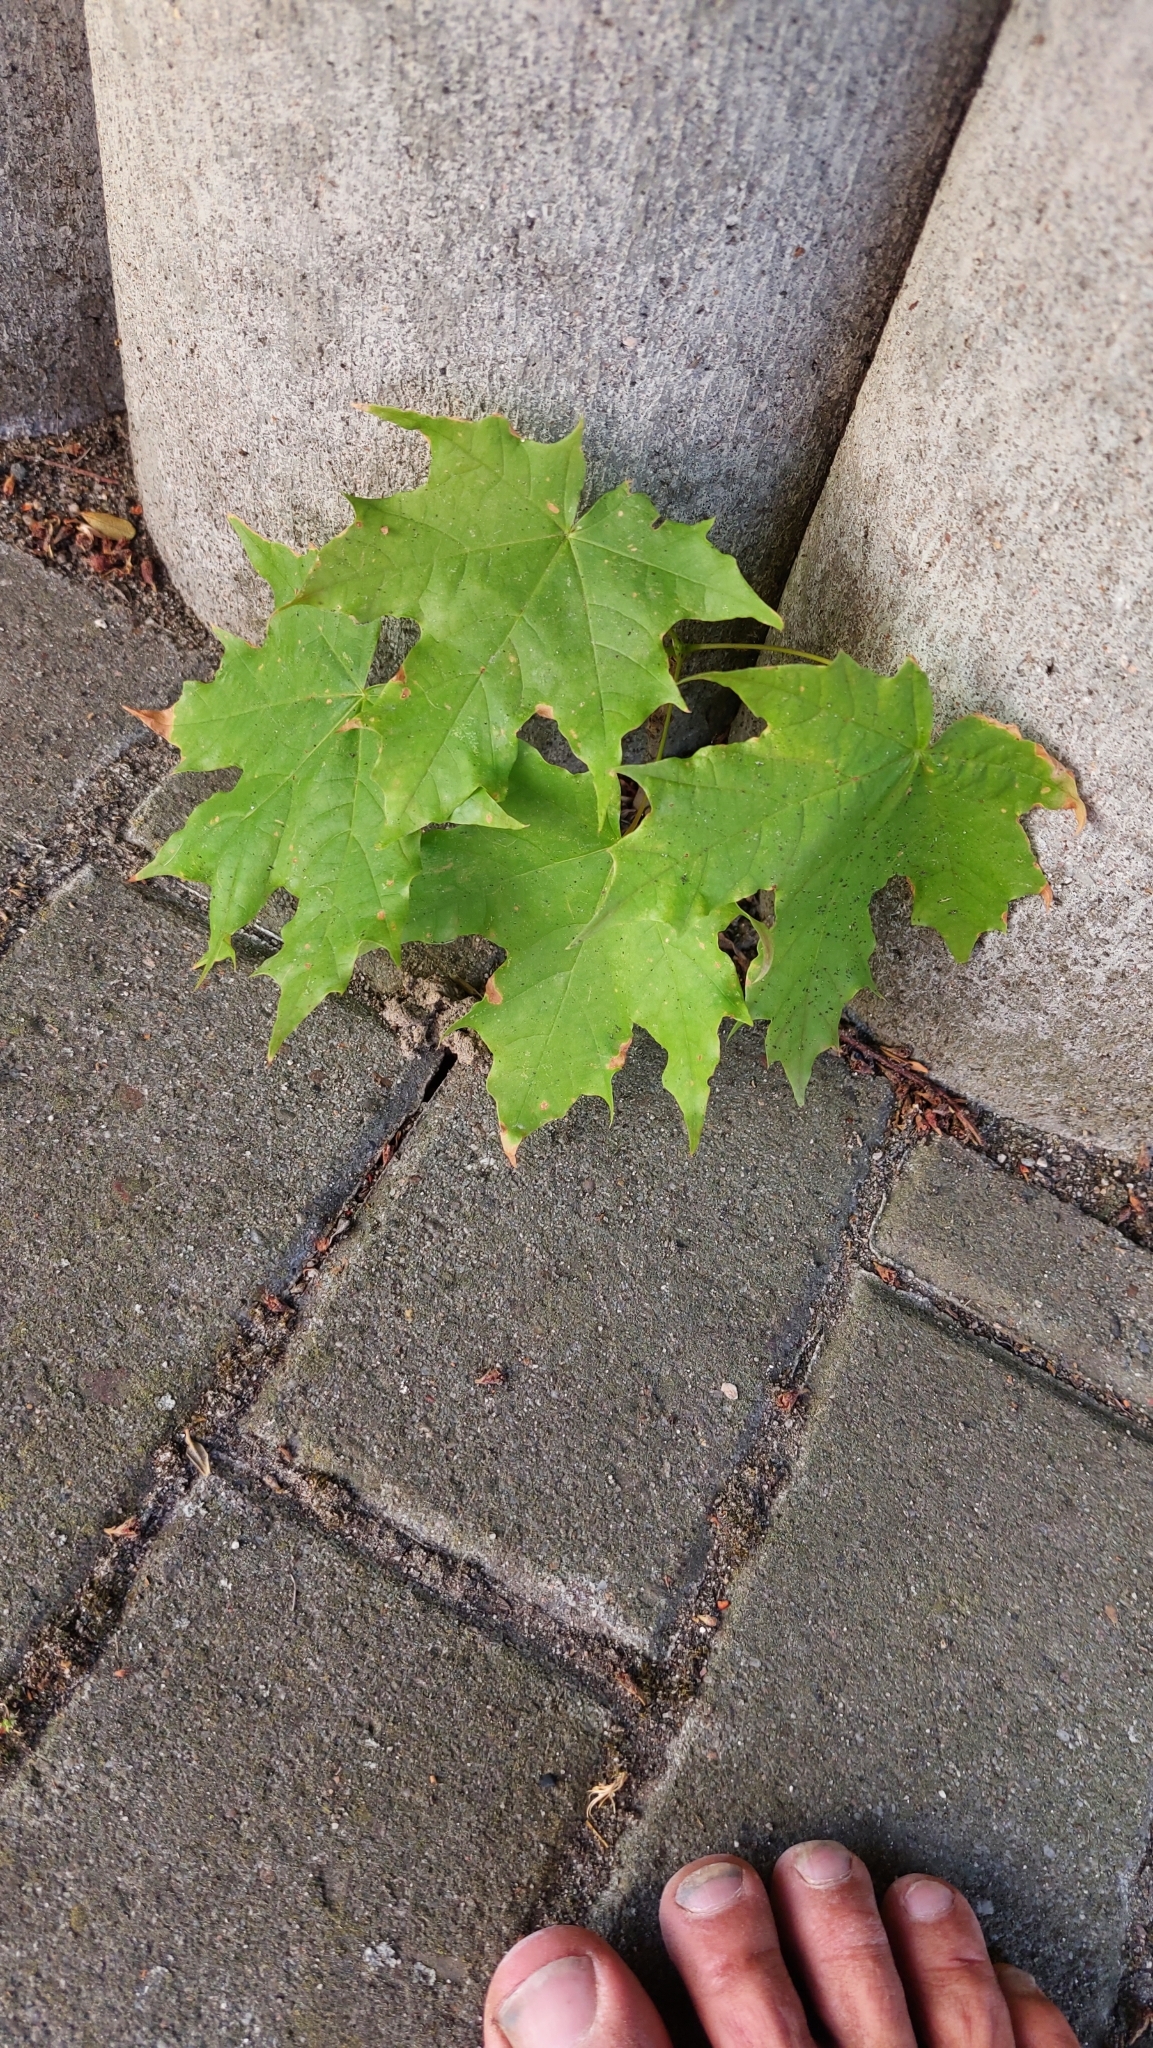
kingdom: Plantae
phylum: Tracheophyta
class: Magnoliopsida
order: Sapindales
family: Sapindaceae
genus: Acer
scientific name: Acer platanoides
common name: Norway maple
